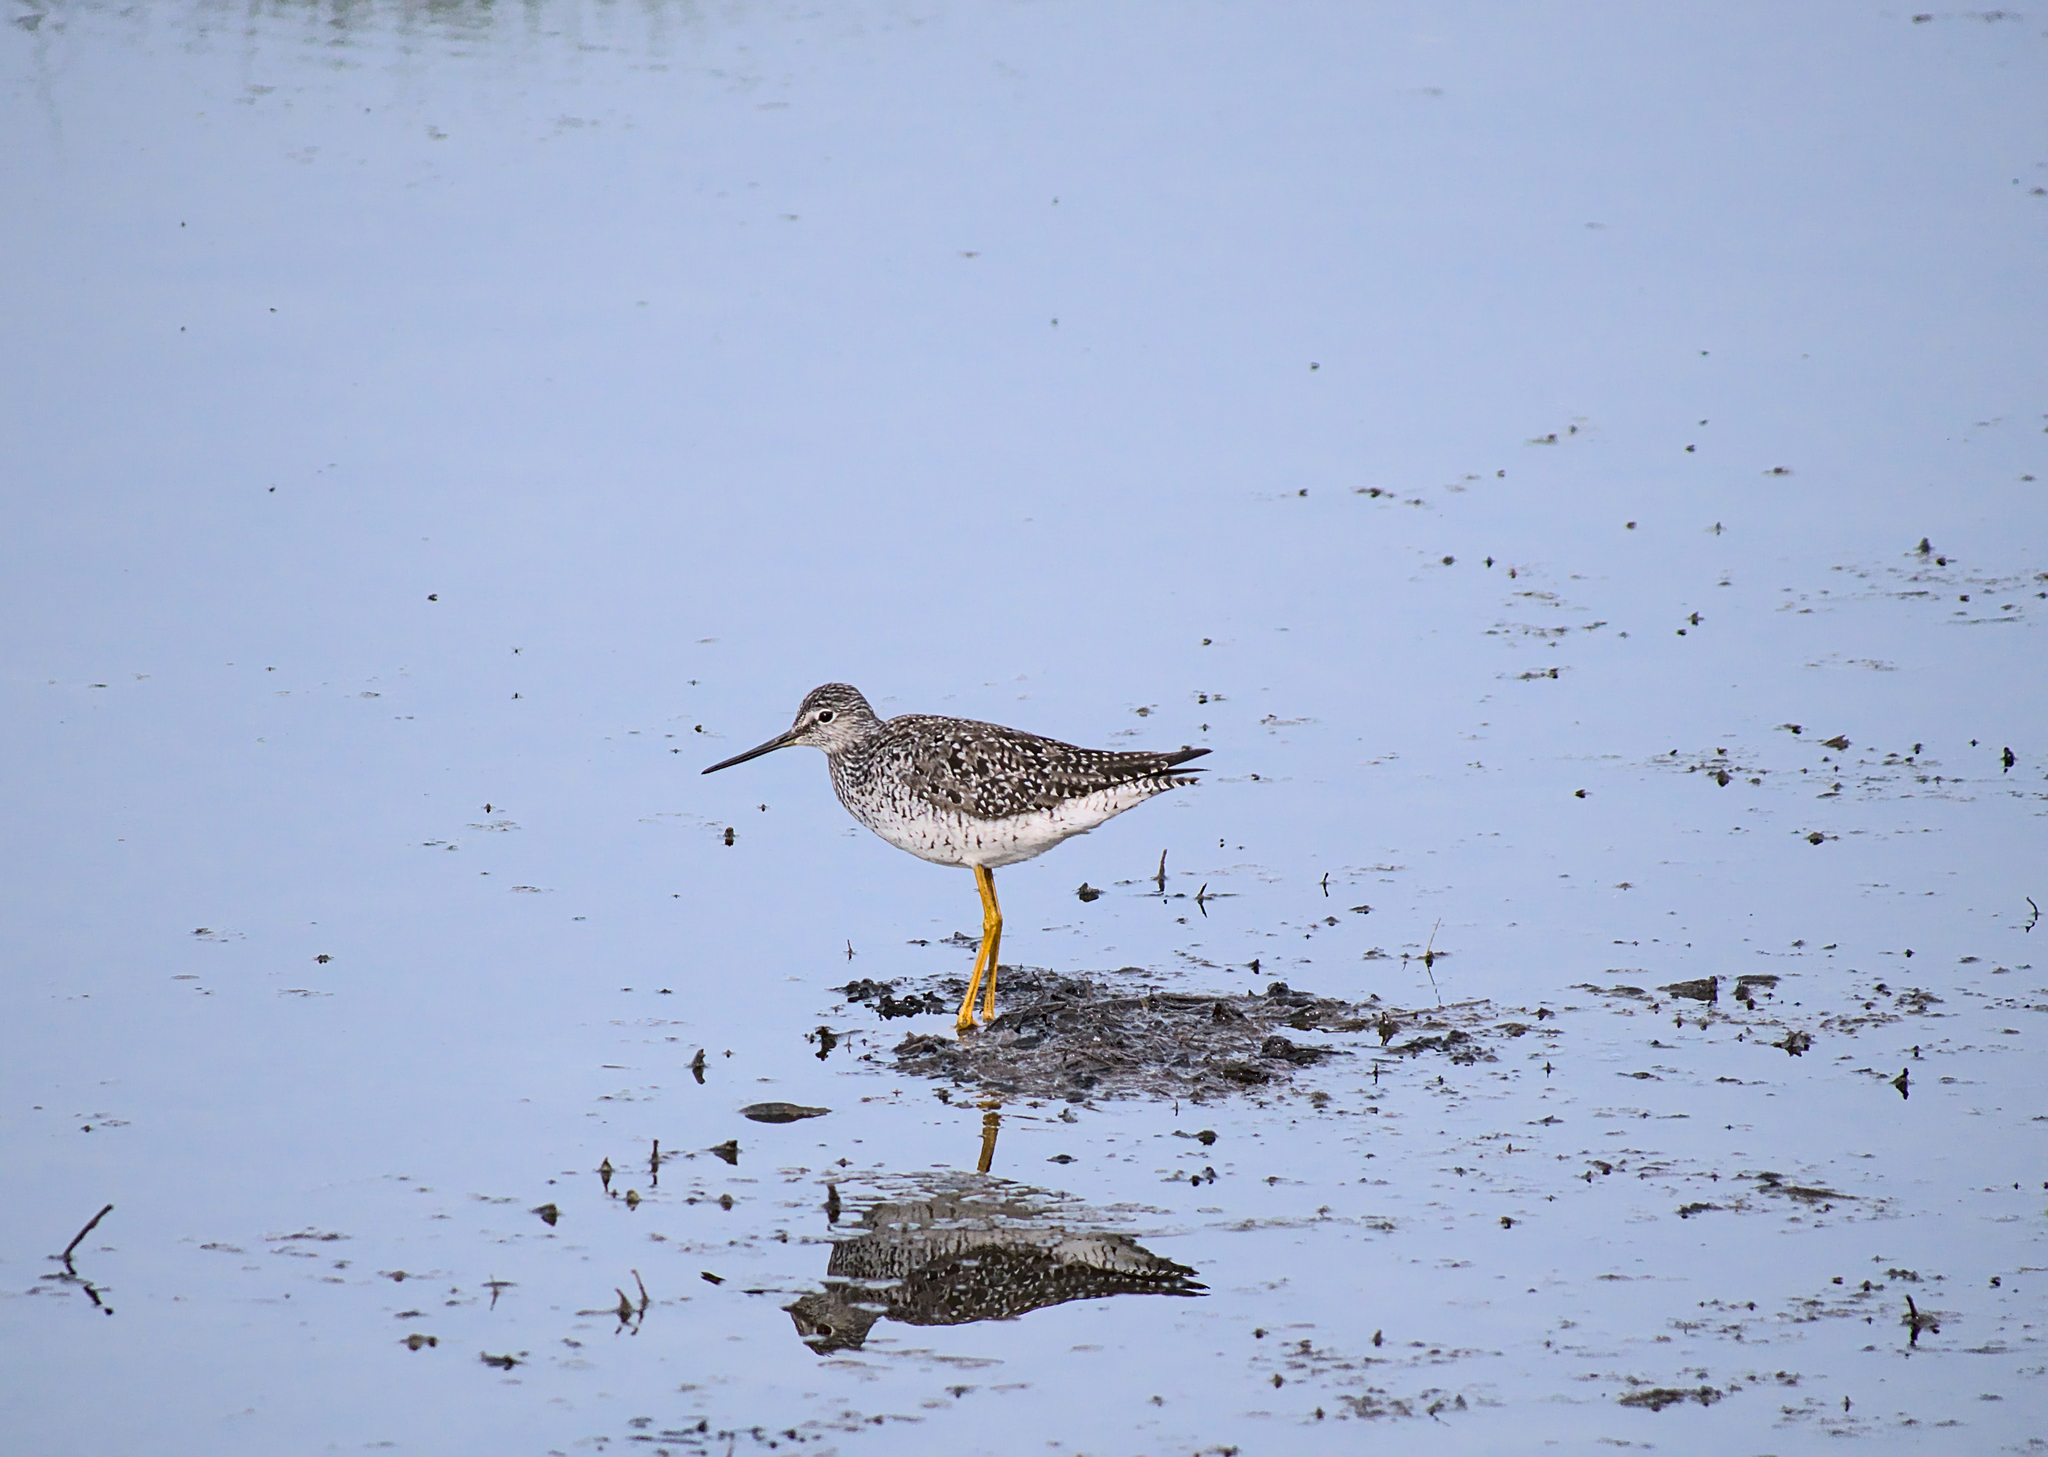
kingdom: Animalia
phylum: Chordata
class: Aves
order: Charadriiformes
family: Scolopacidae
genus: Tringa
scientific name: Tringa melanoleuca
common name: Greater yellowlegs
